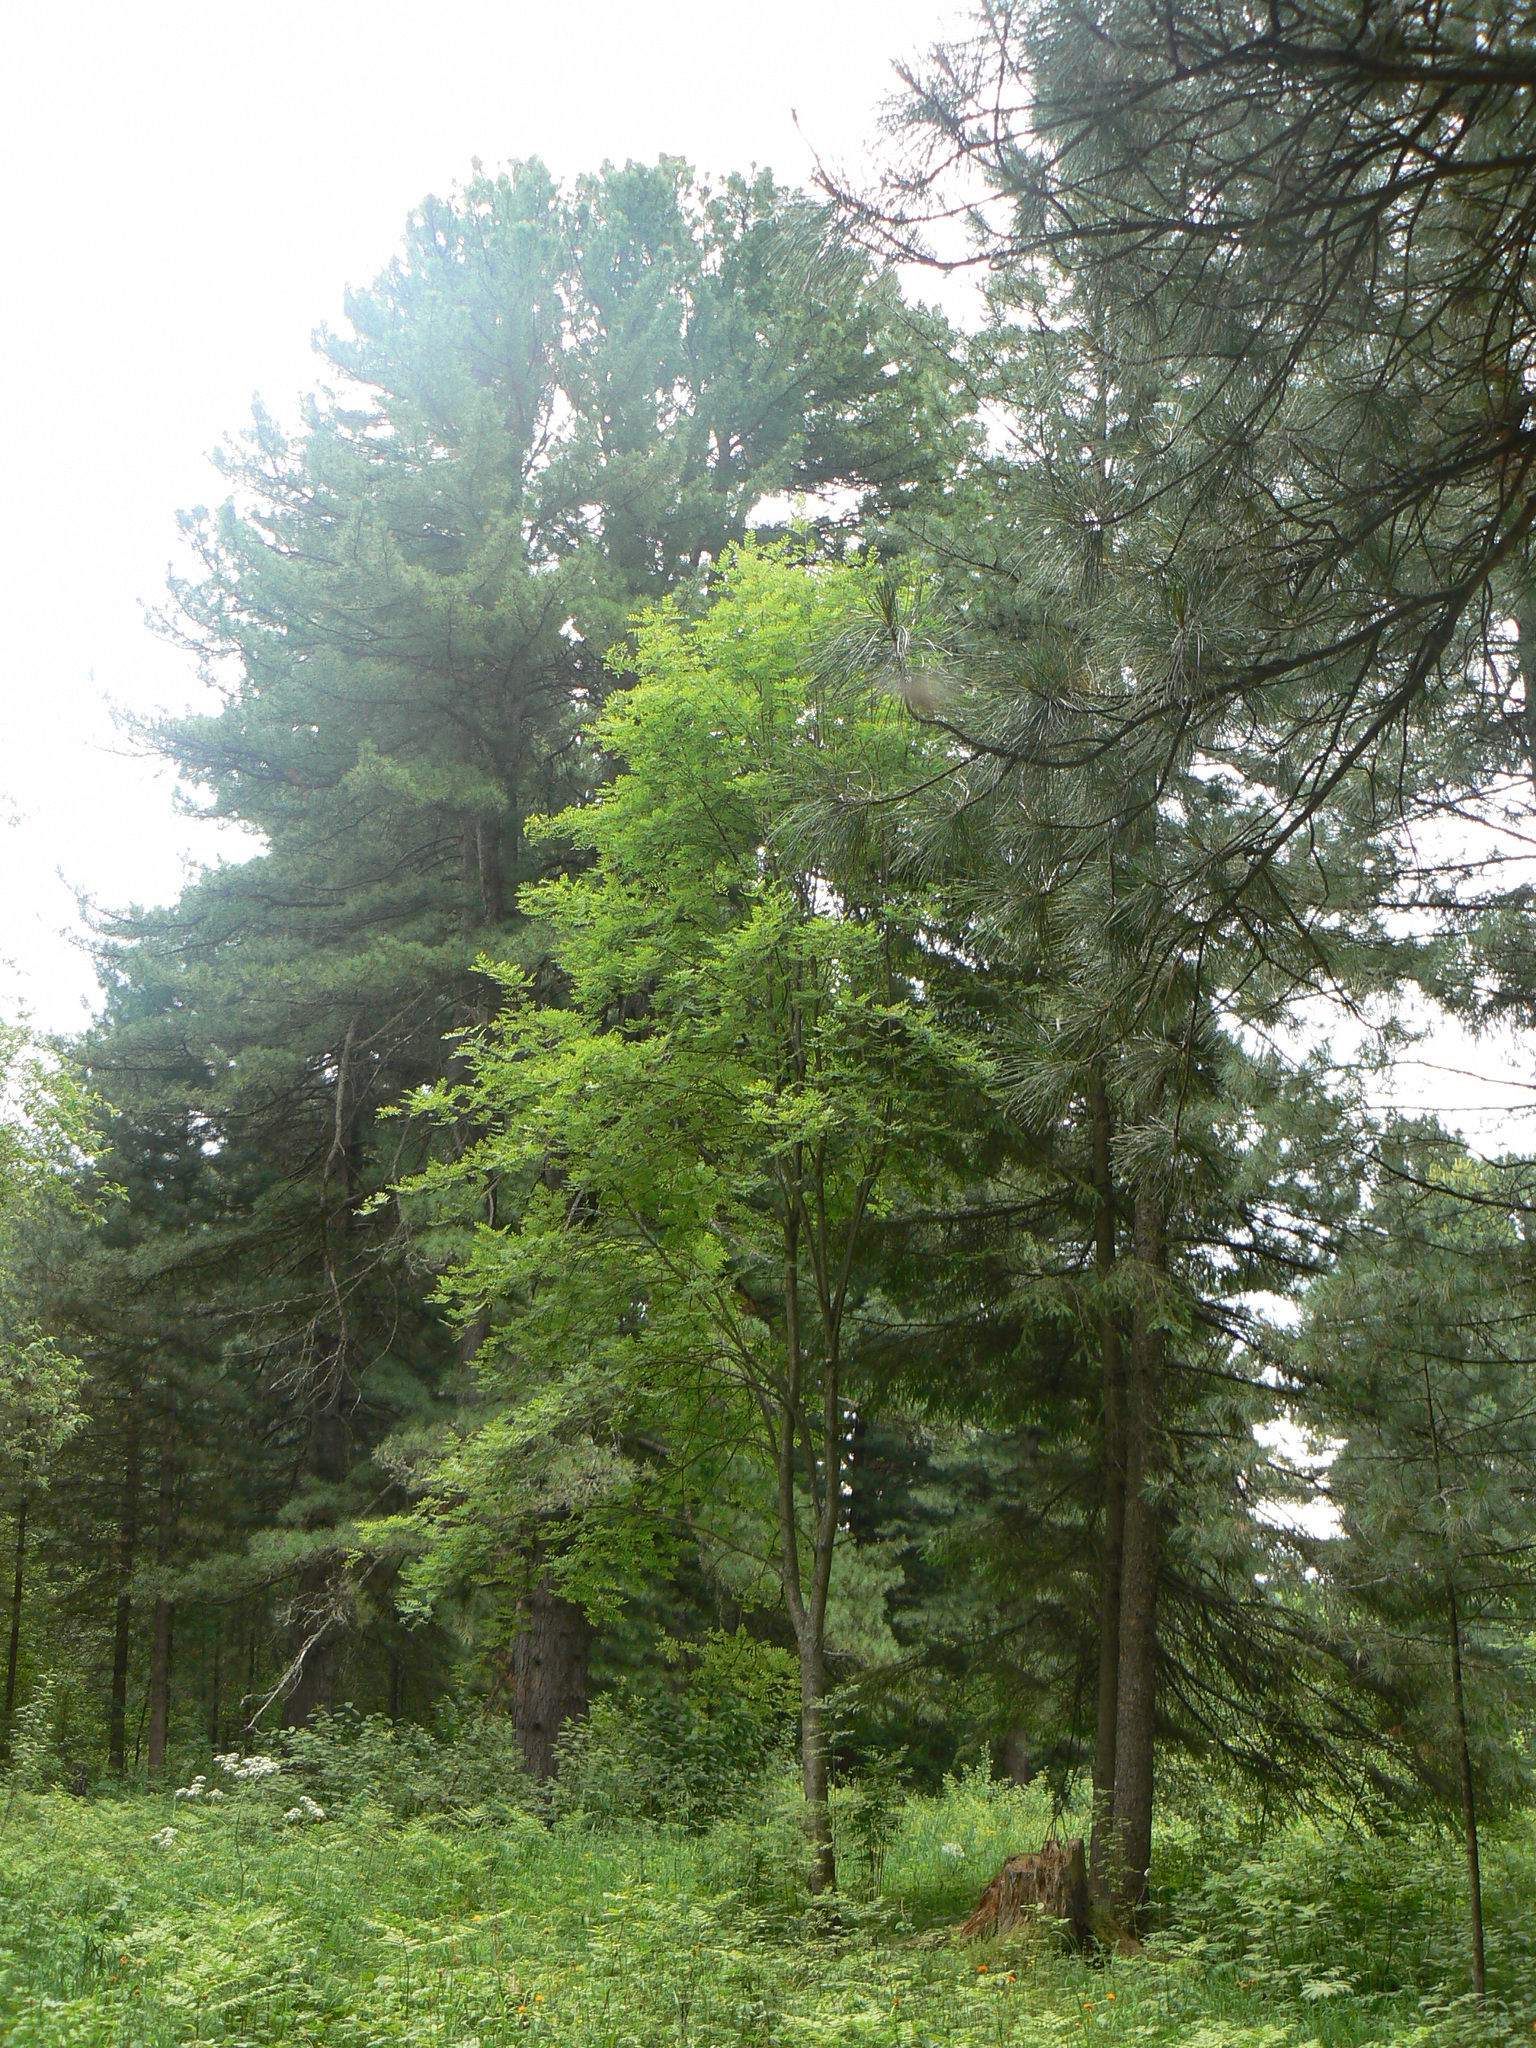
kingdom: Plantae
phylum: Tracheophyta
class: Pinopsida
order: Pinales
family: Pinaceae
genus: Pinus
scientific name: Pinus sibirica
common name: Siberian pine
